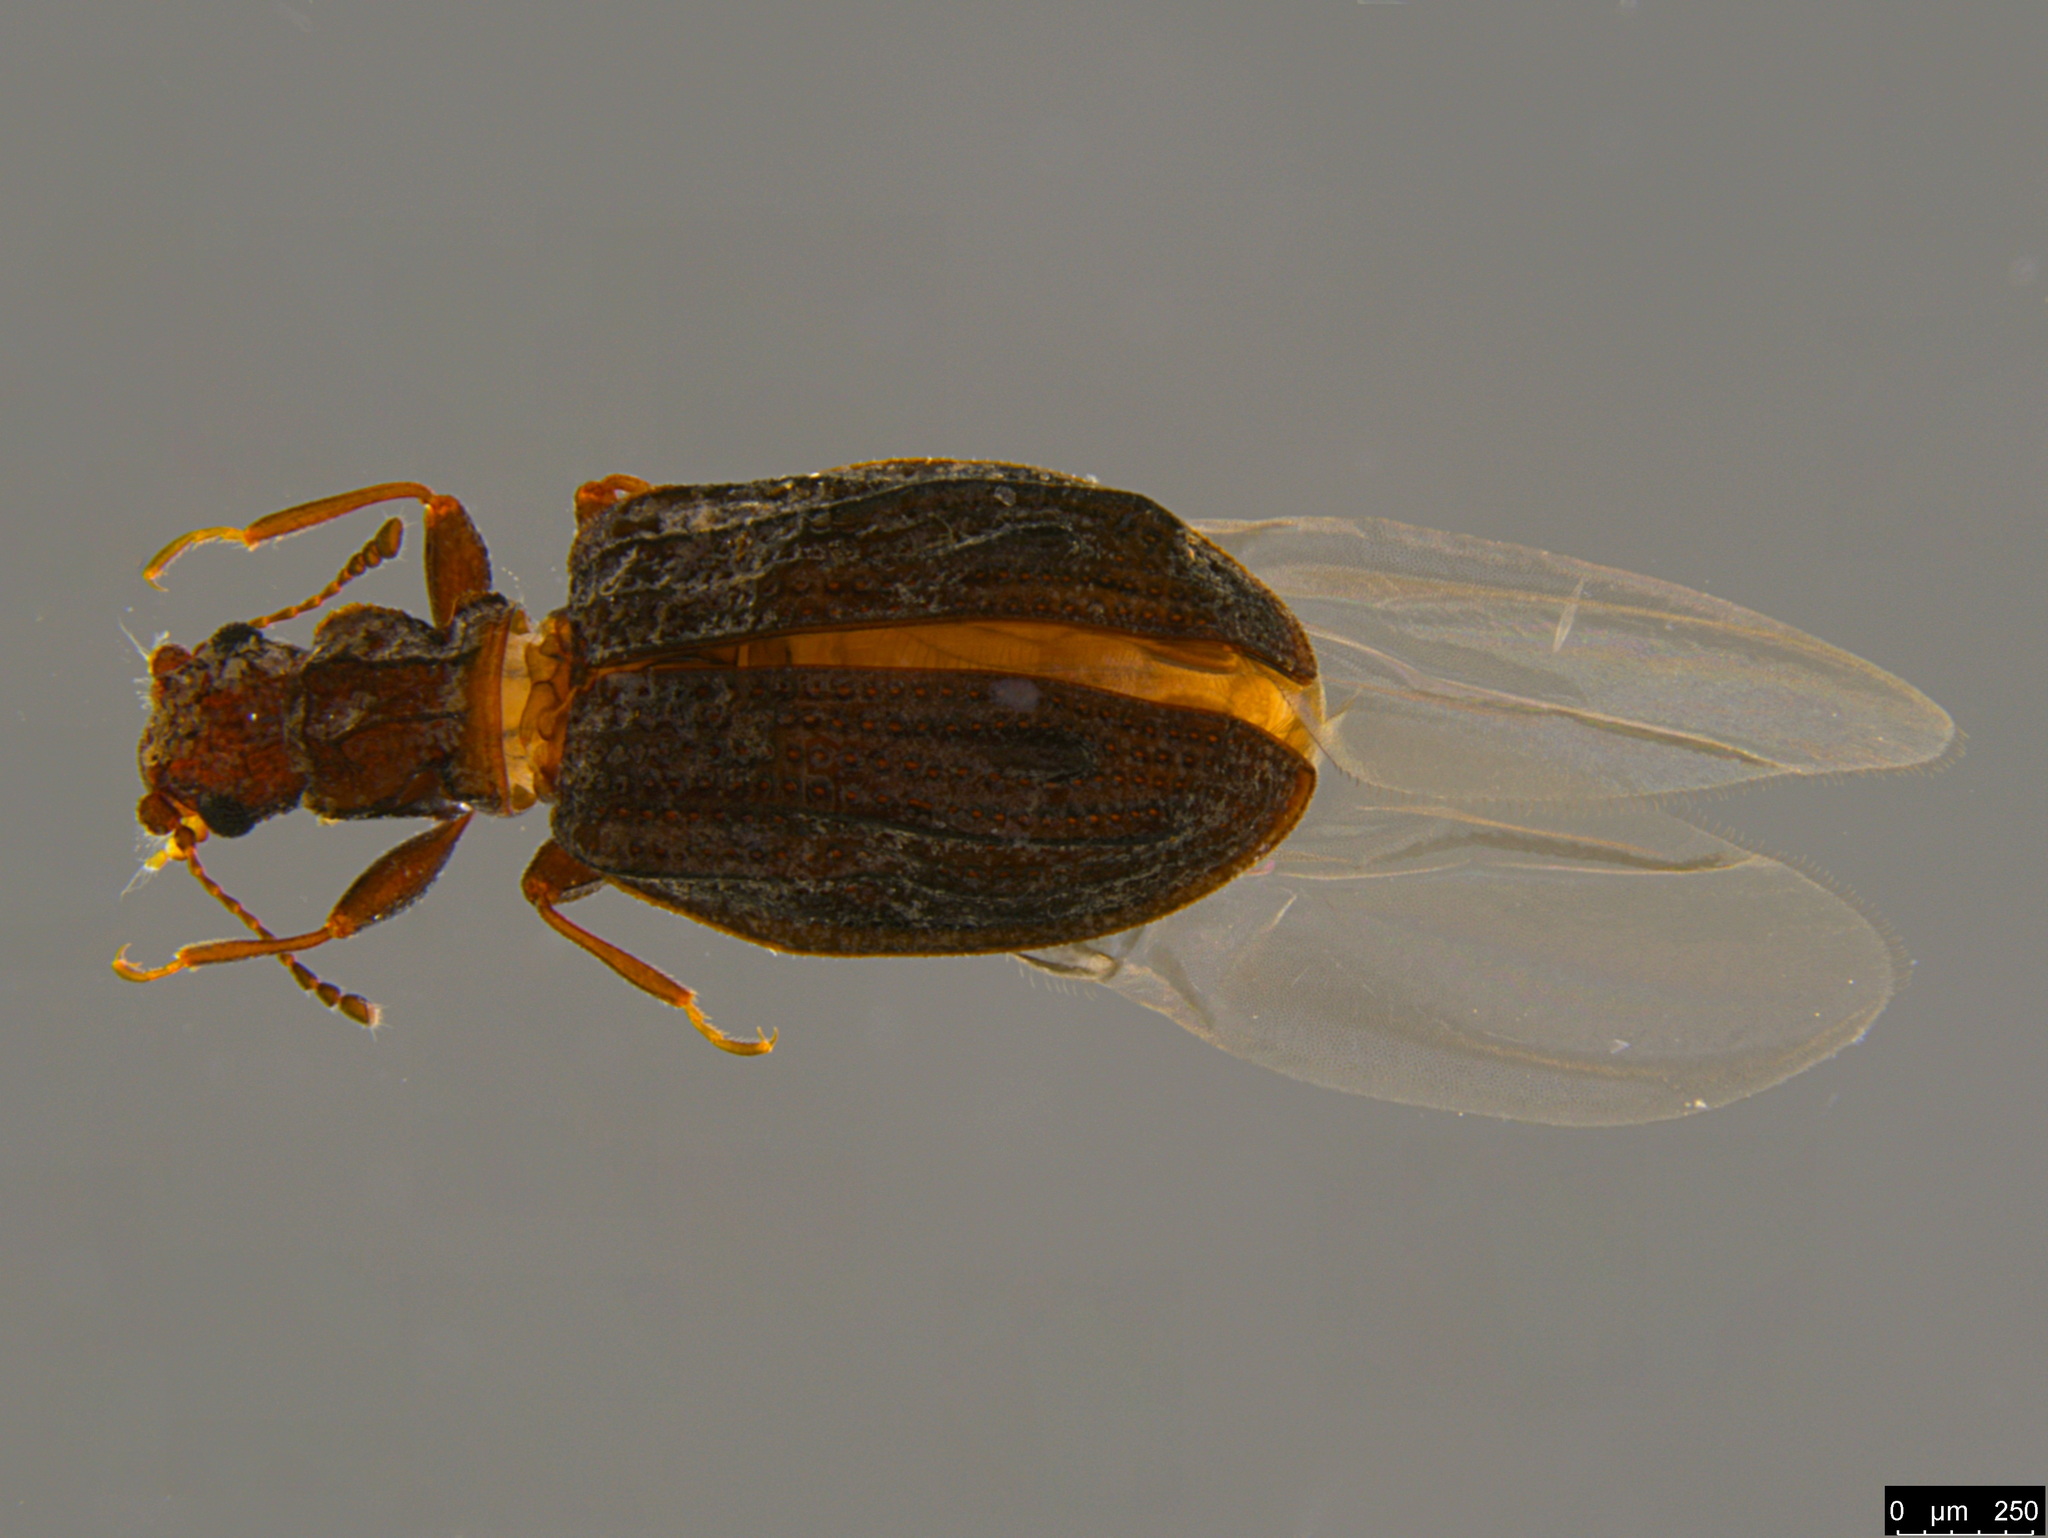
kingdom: Animalia
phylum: Arthropoda
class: Insecta
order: Coleoptera
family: Latridiidae
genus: Cartodere
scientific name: Cartodere nodifer
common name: Humpbacked minute scavenger beetle
